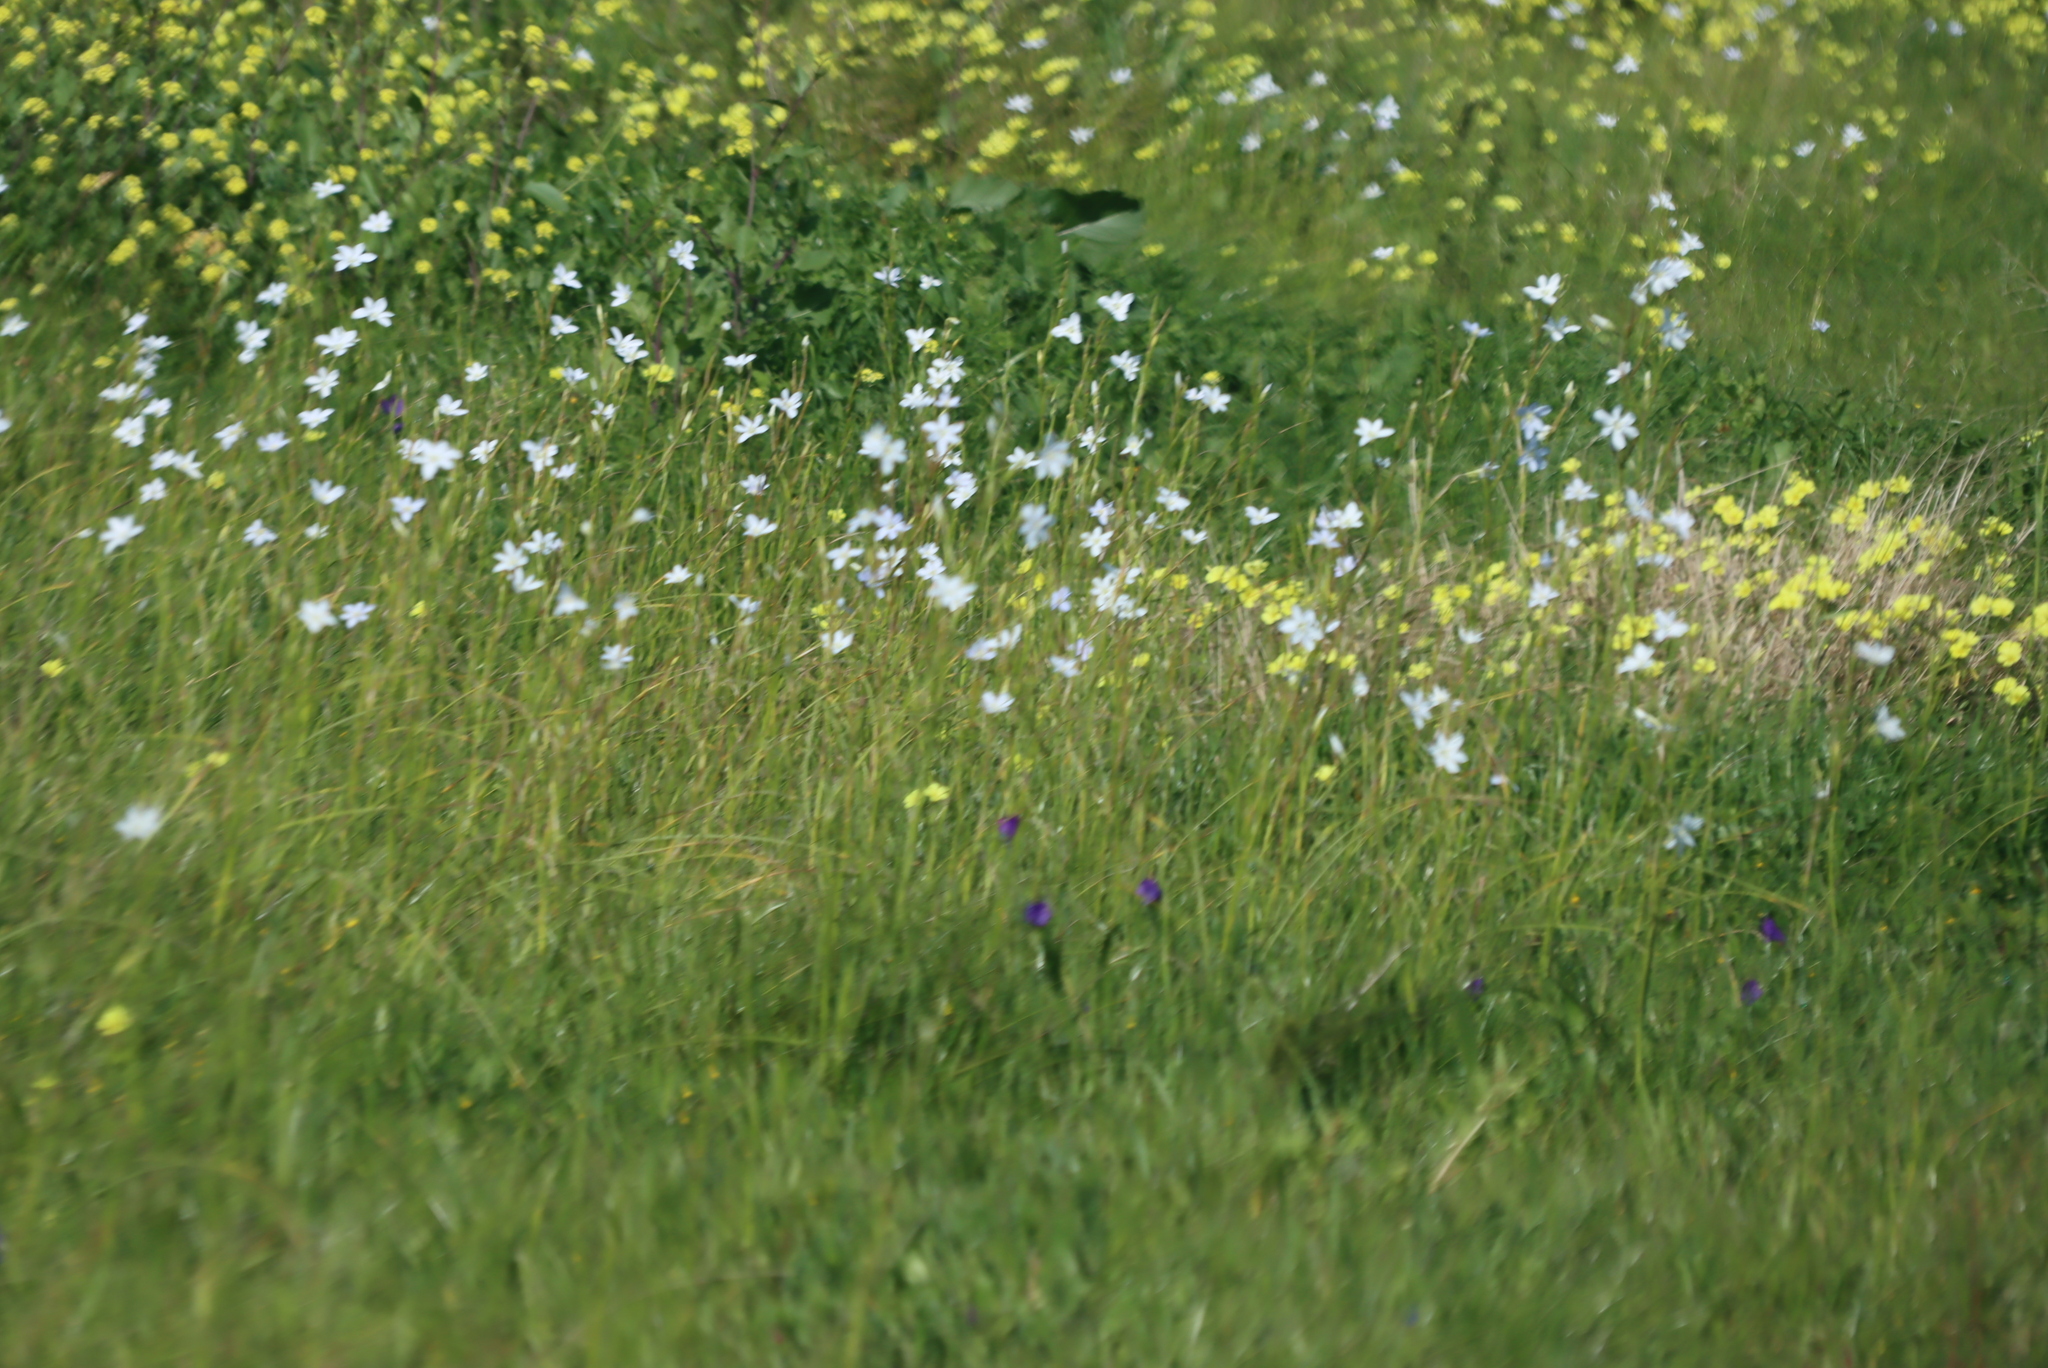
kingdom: Plantae
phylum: Tracheophyta
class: Liliopsida
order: Asparagales
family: Iridaceae
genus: Moraea
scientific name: Moraea polyanthos
